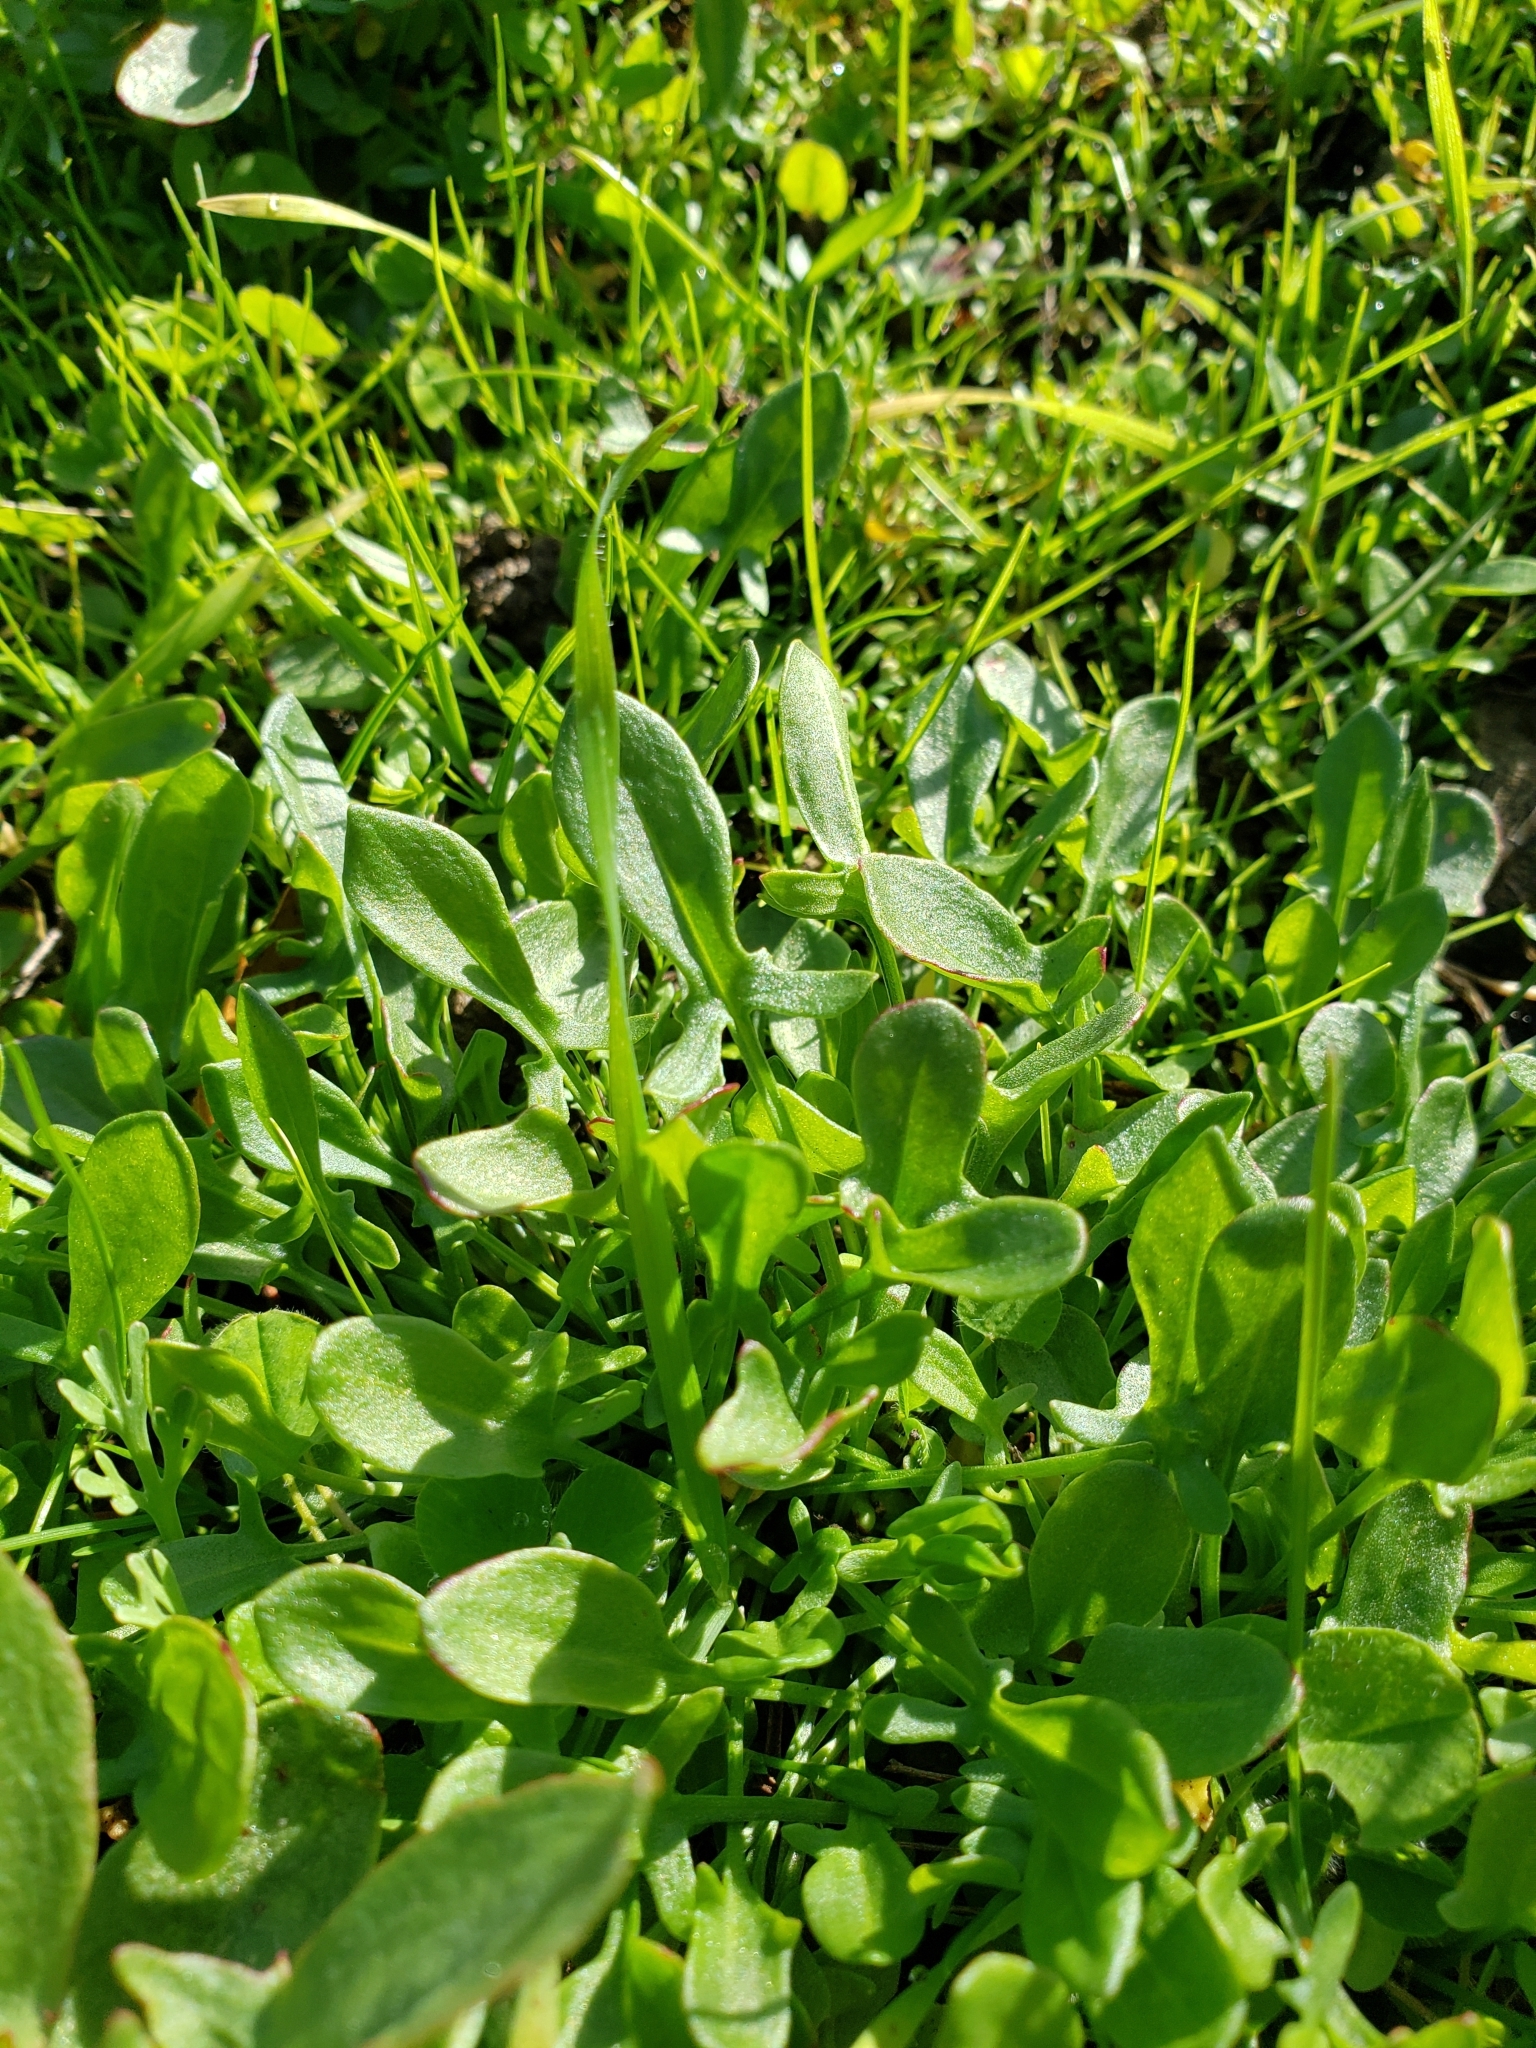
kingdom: Plantae
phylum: Tracheophyta
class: Magnoliopsida
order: Caryophyllales
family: Polygonaceae
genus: Rumex
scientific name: Rumex acetosella
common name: Common sheep sorrel
